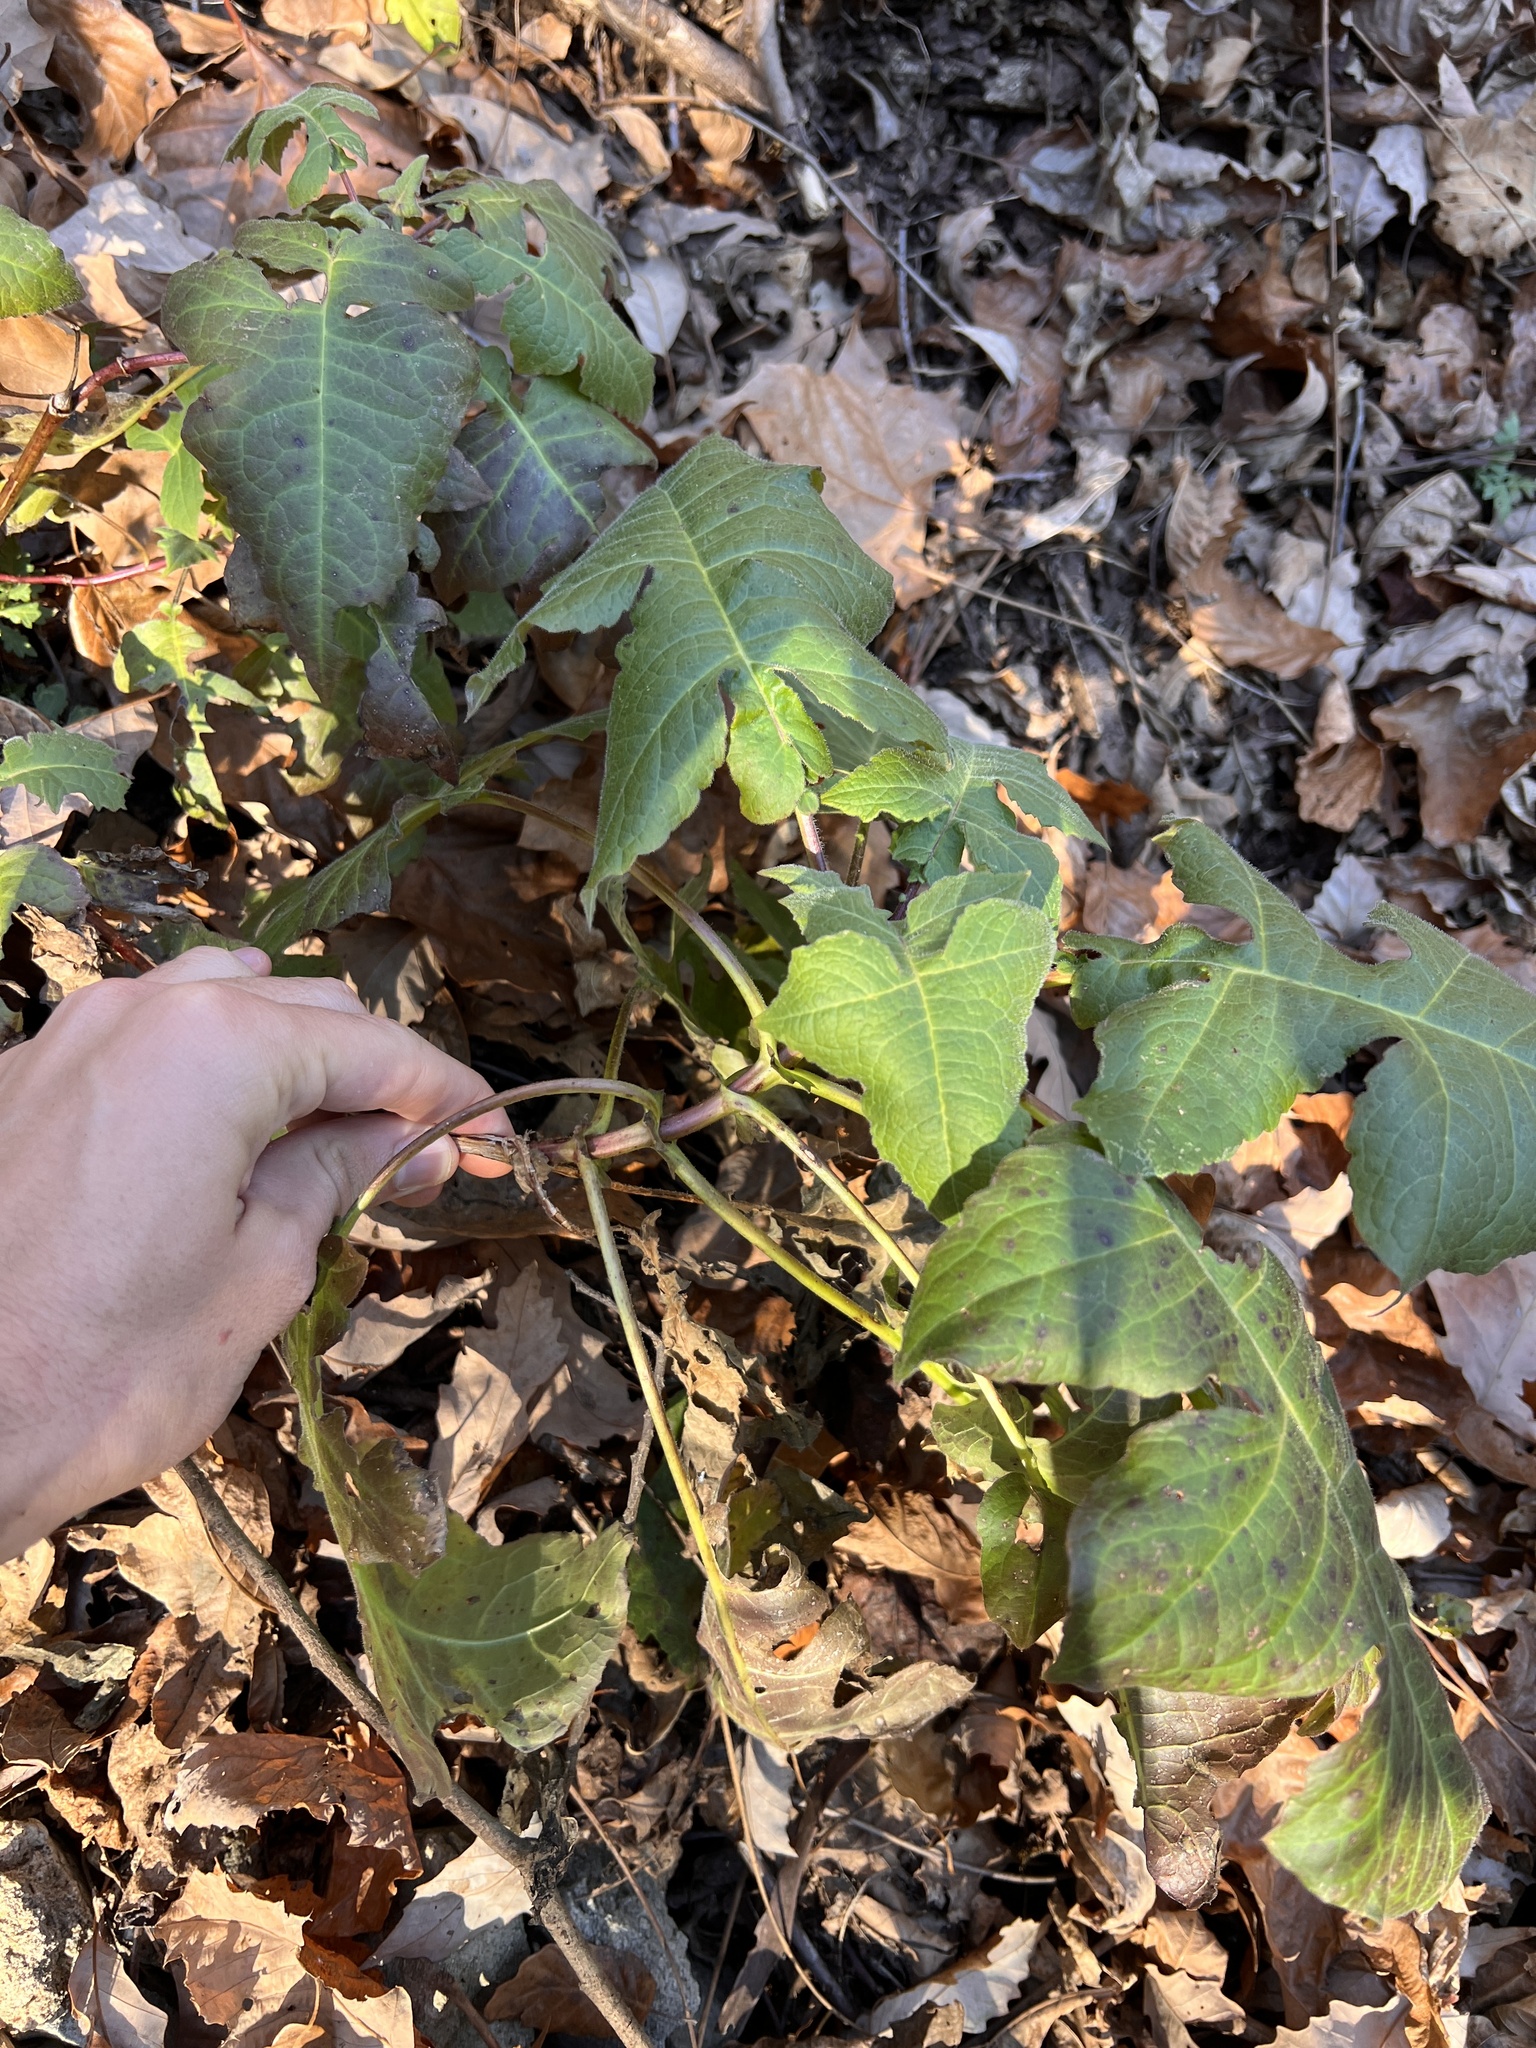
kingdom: Plantae
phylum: Tracheophyta
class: Magnoliopsida
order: Asterales
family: Asteraceae
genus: Polymnia
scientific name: Polymnia canadensis
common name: Pale-flowered leafcup
